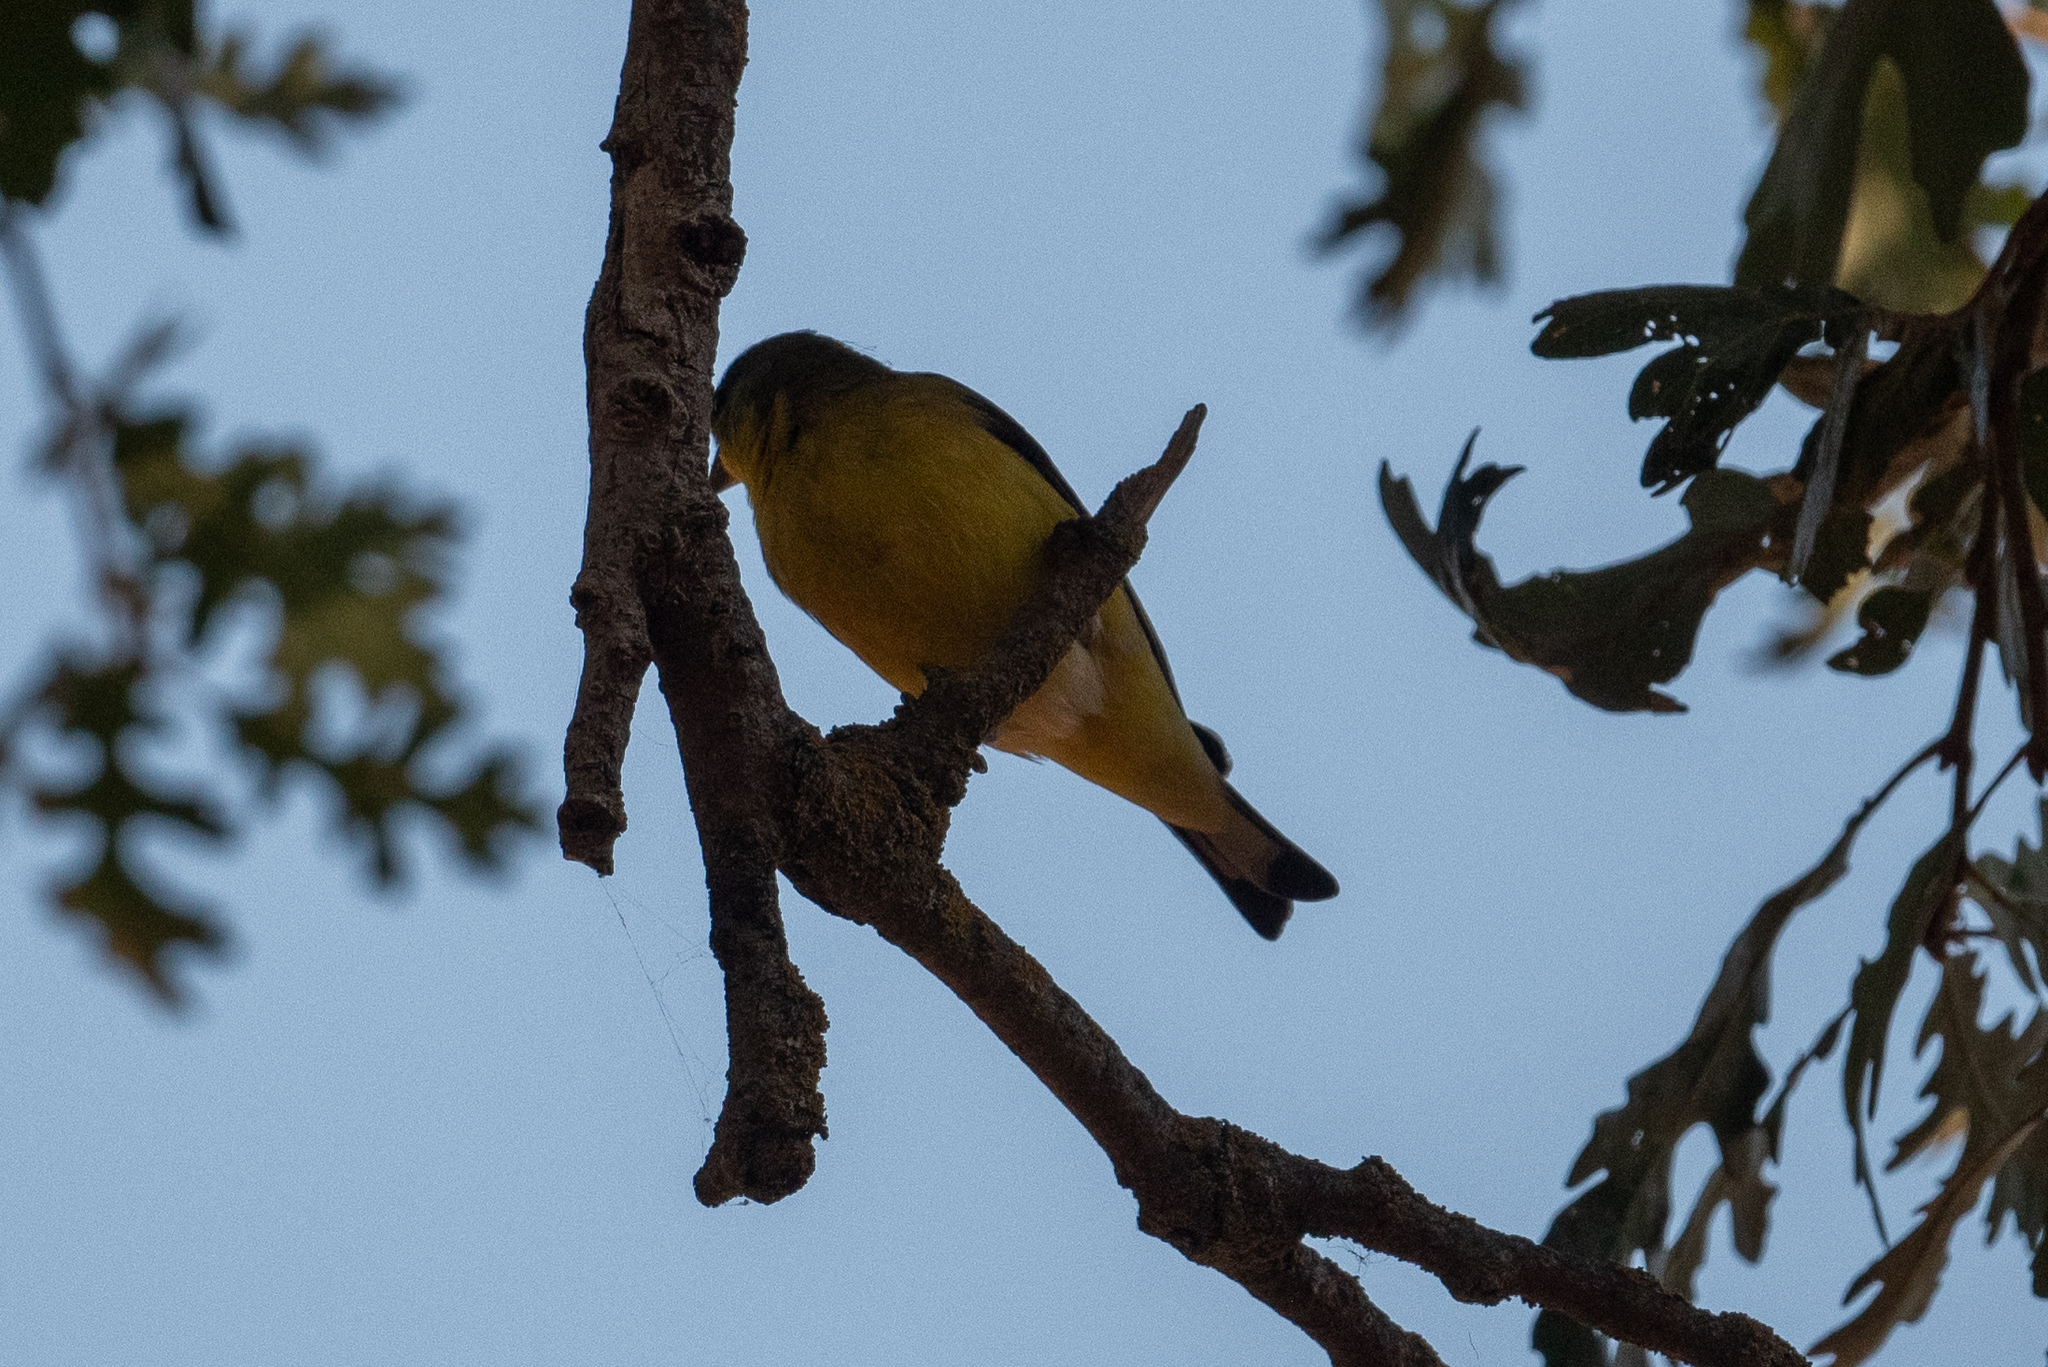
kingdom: Animalia
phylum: Chordata
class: Aves
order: Passeriformes
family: Fringillidae
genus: Spinus
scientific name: Spinus psaltria
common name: Lesser goldfinch
